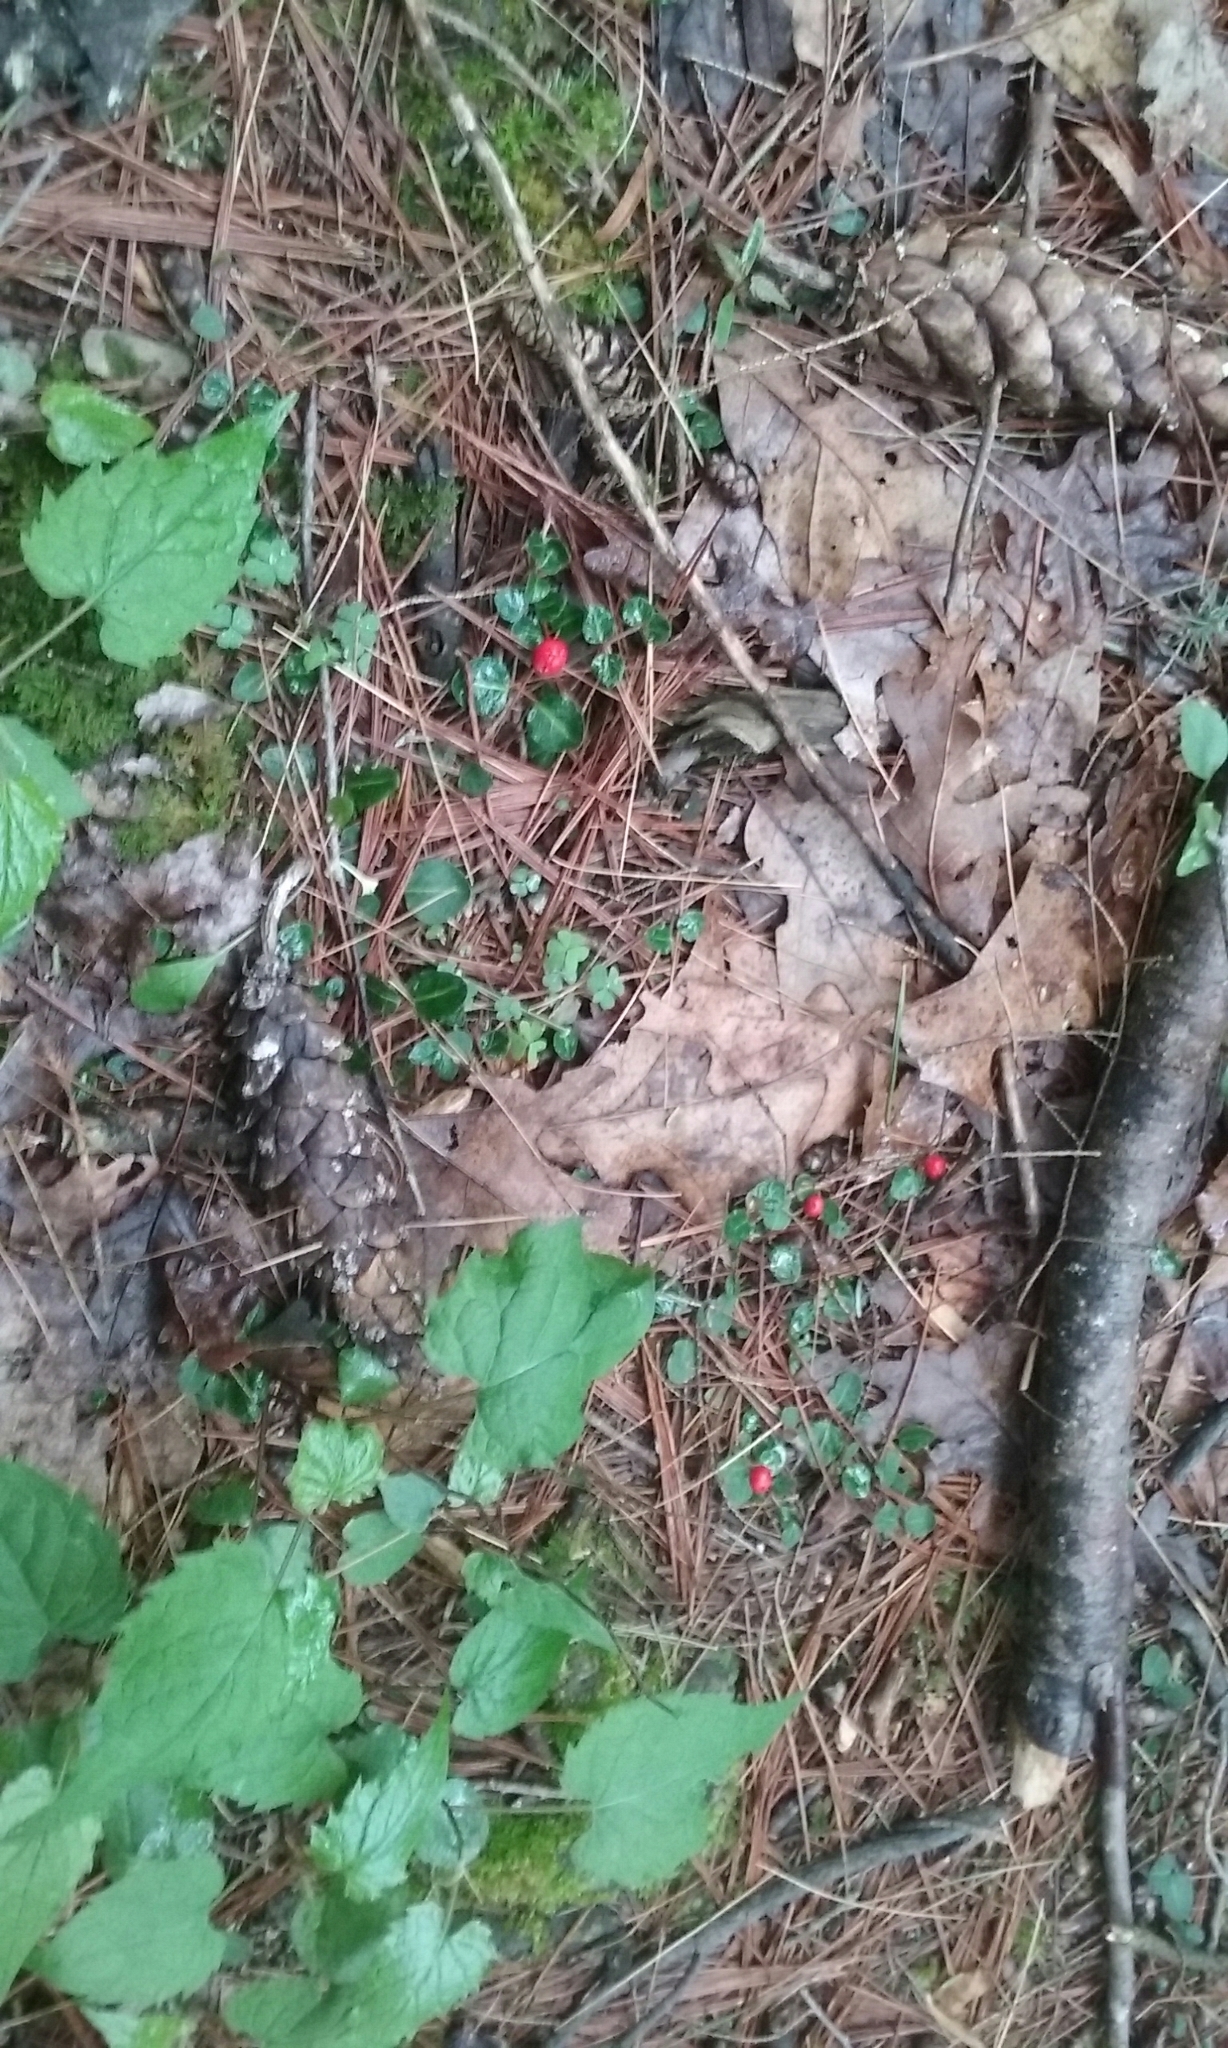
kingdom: Plantae
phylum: Tracheophyta
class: Magnoliopsida
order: Gentianales
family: Rubiaceae
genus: Mitchella
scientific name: Mitchella repens
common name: Partridge-berry
